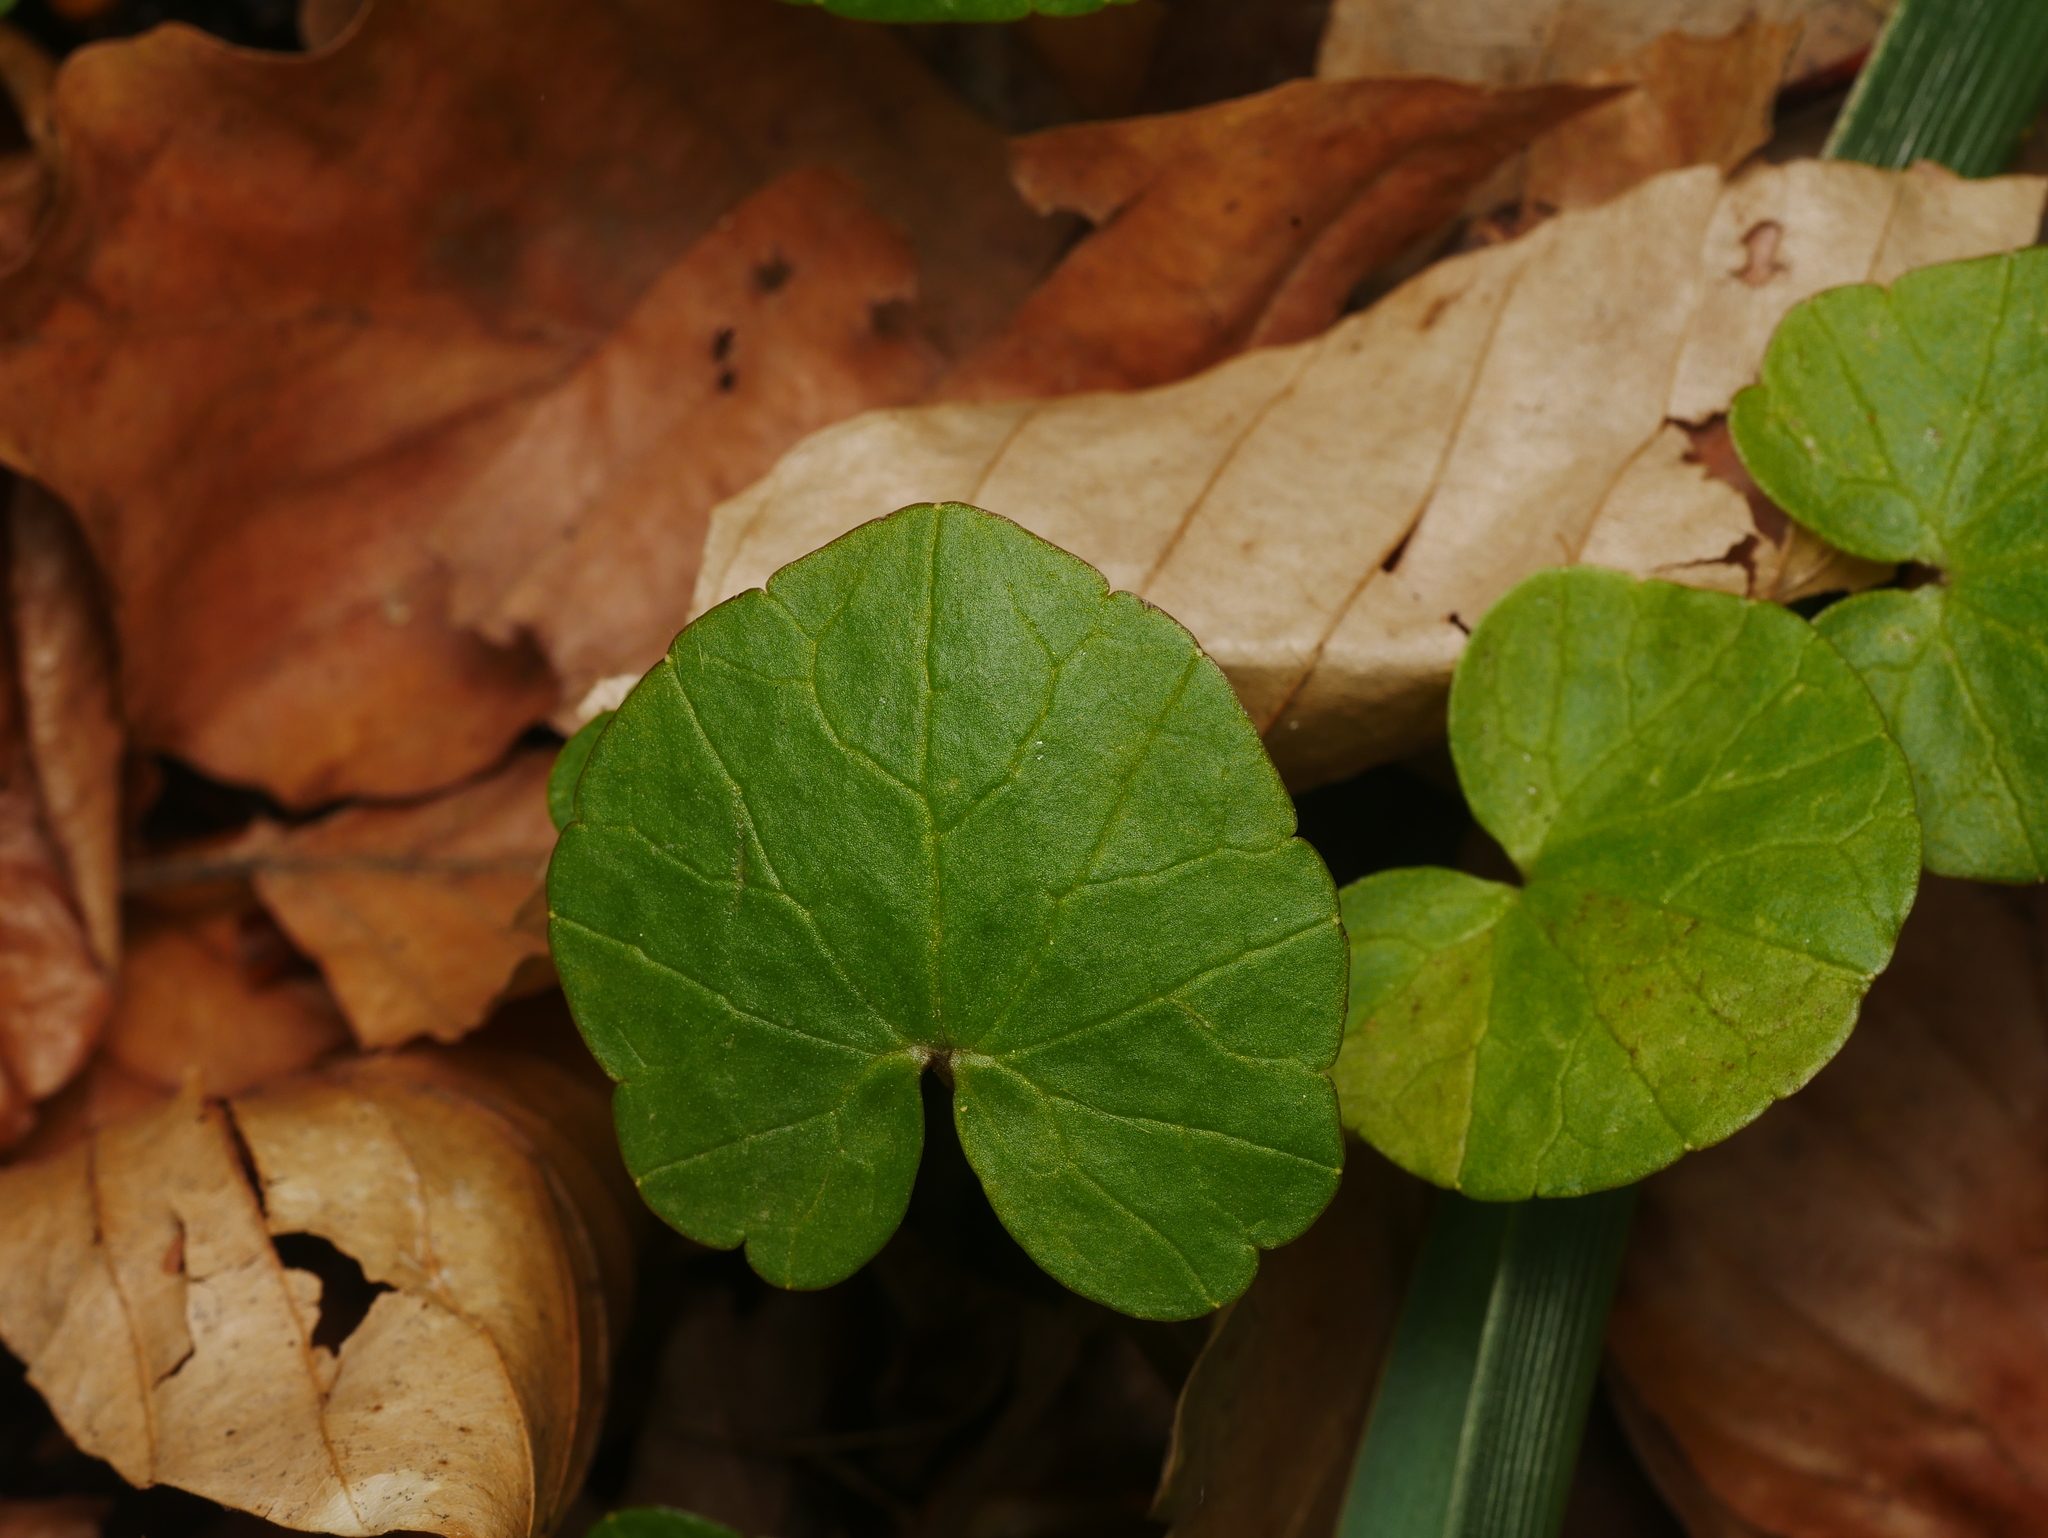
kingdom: Plantae
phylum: Tracheophyta
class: Magnoliopsida
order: Ranunculales
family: Ranunculaceae
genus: Ficaria
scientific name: Ficaria verna
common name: Lesser celandine
